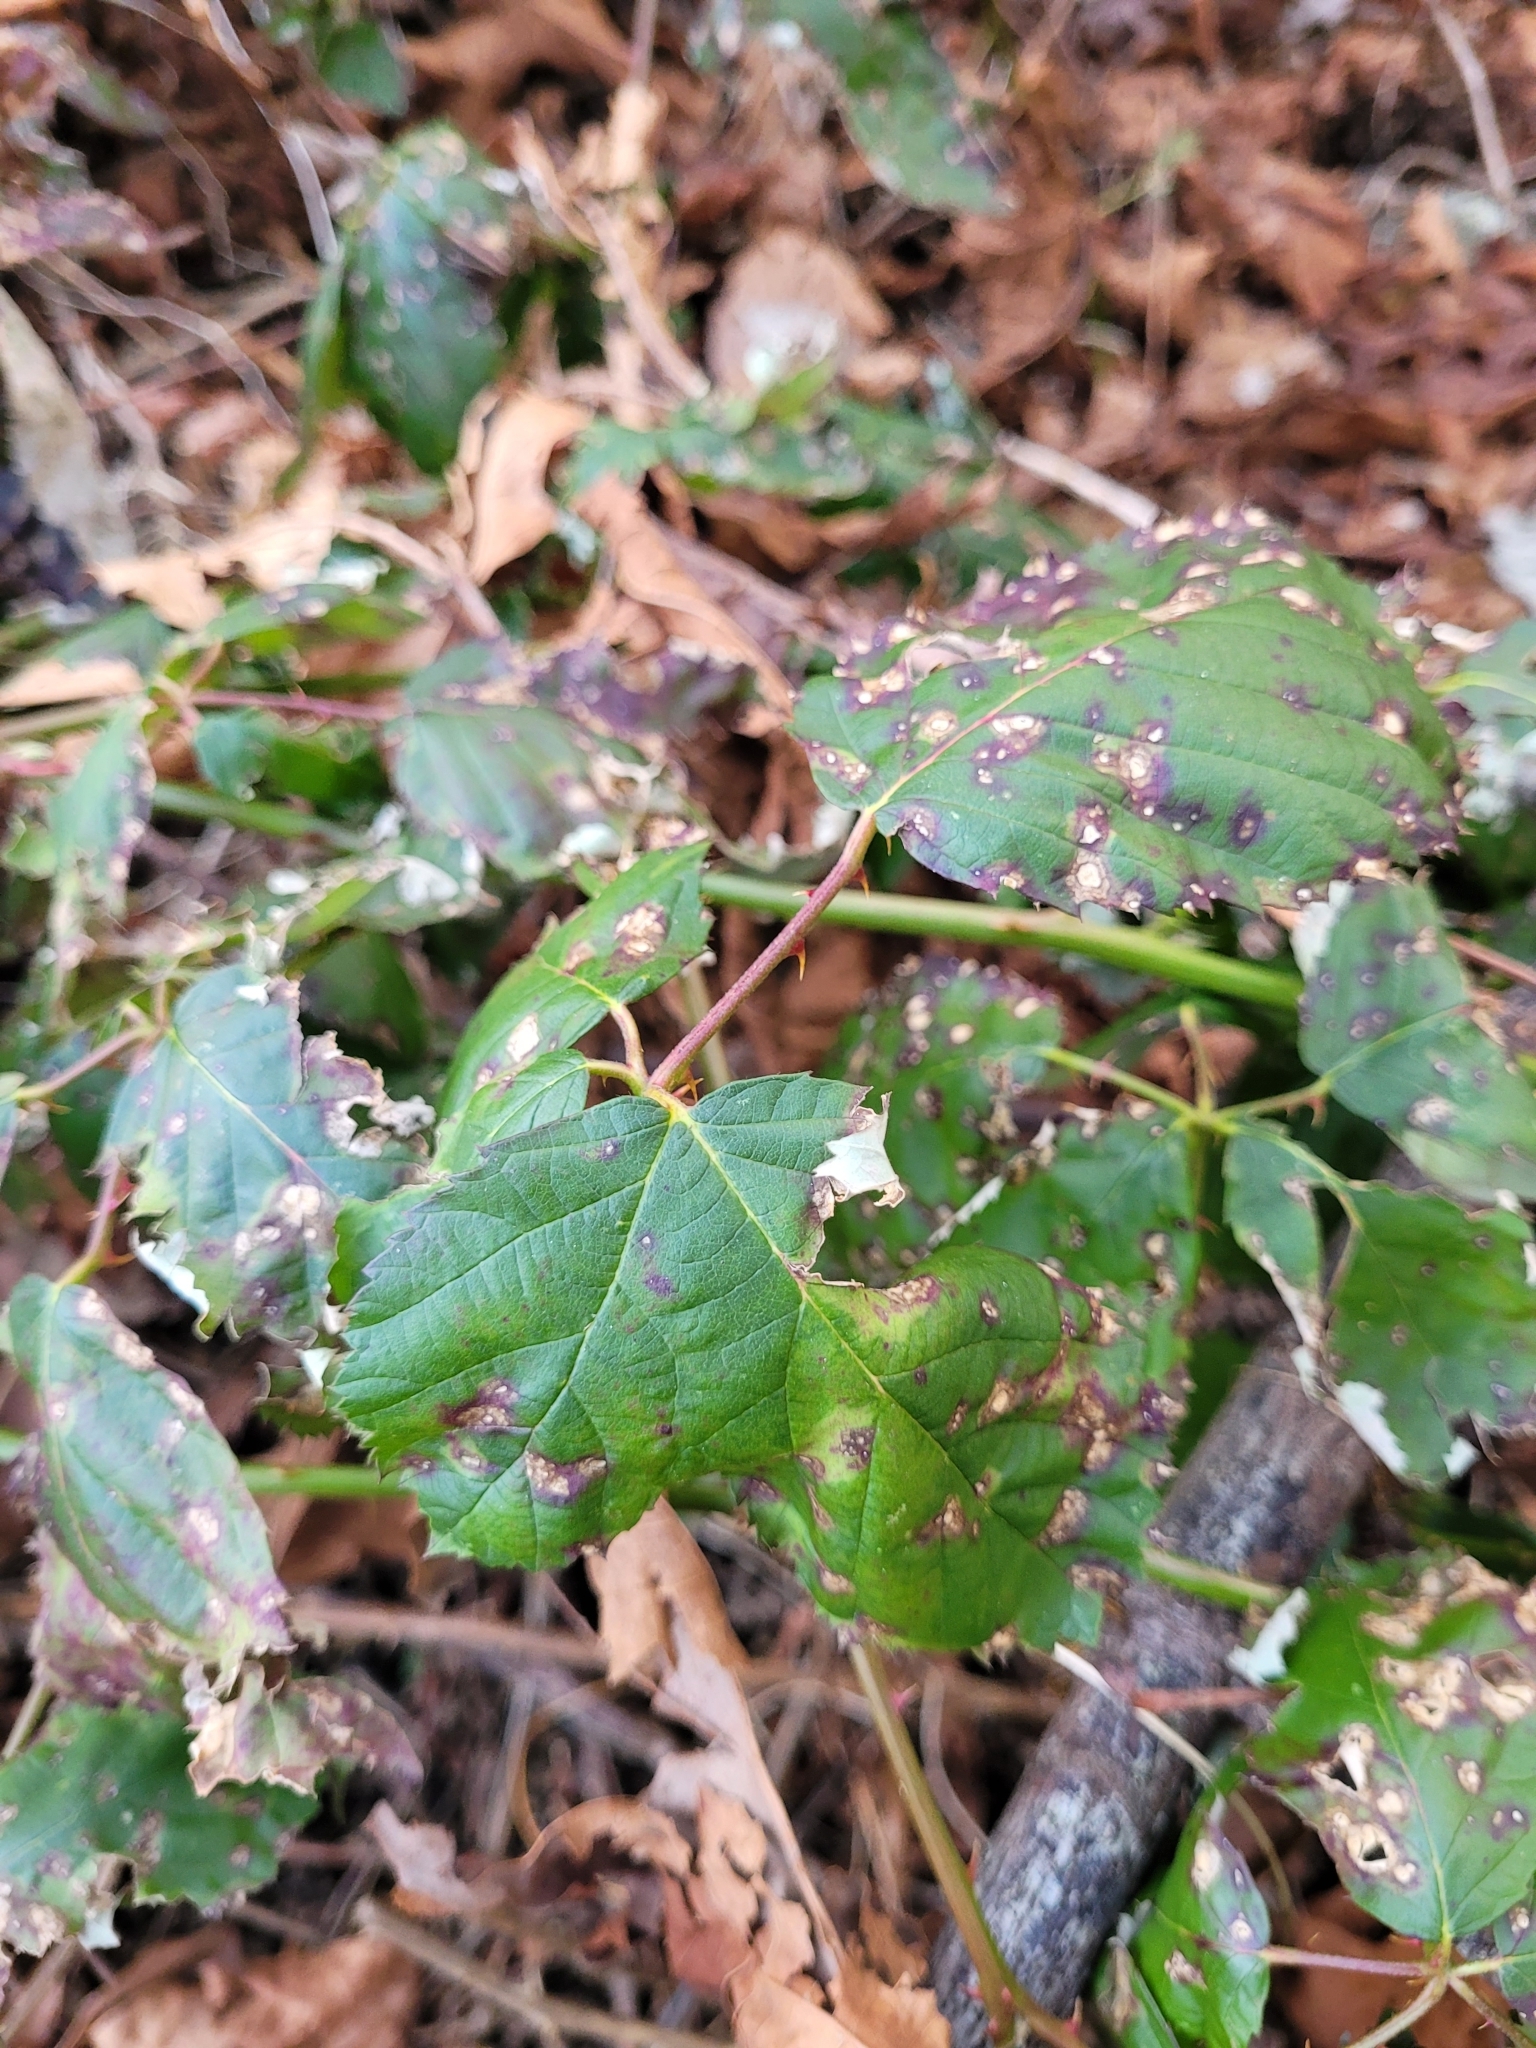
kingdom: Plantae
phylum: Tracheophyta
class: Magnoliopsida
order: Rosales
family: Rosaceae
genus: Rubus
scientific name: Rubus armeniacus
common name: Himalayan blackberry
